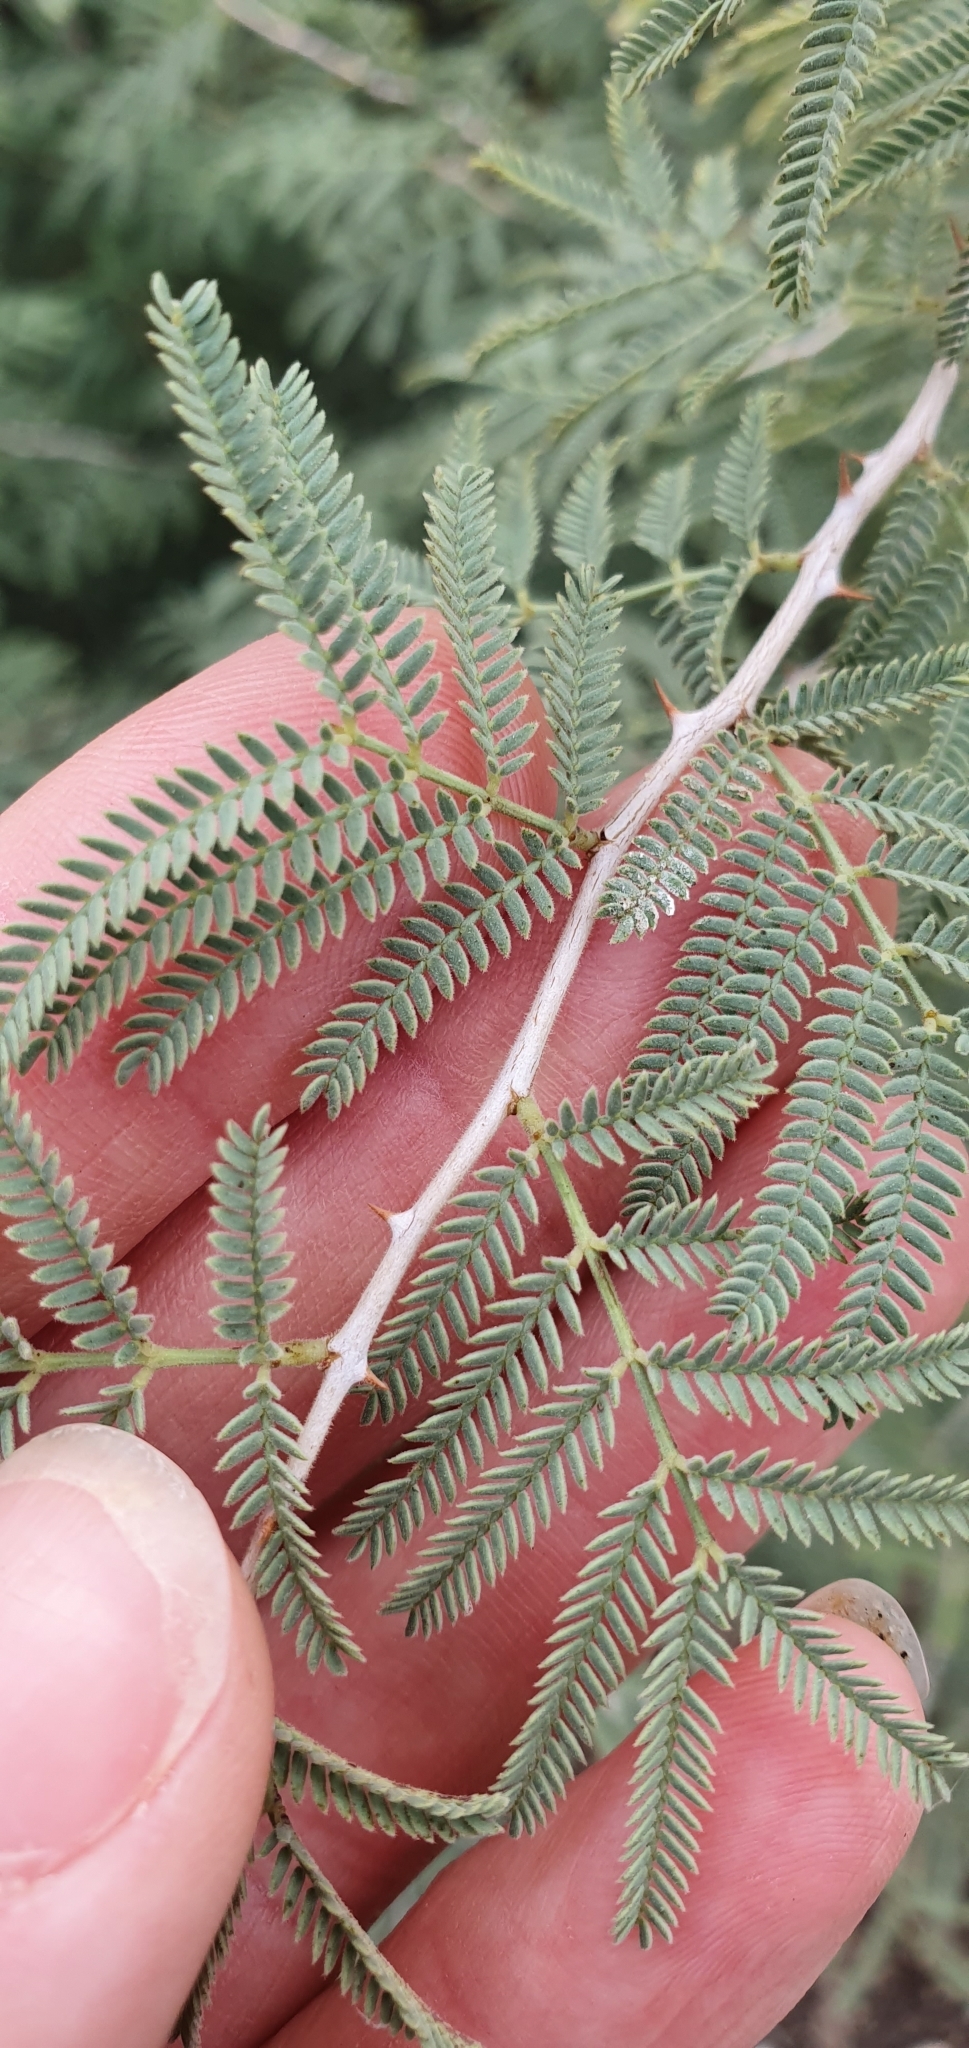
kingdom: Plantae
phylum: Tracheophyta
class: Magnoliopsida
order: Fabales
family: Fabaceae
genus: Prosopis
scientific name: Prosopis farcta
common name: Syrian mesquite
